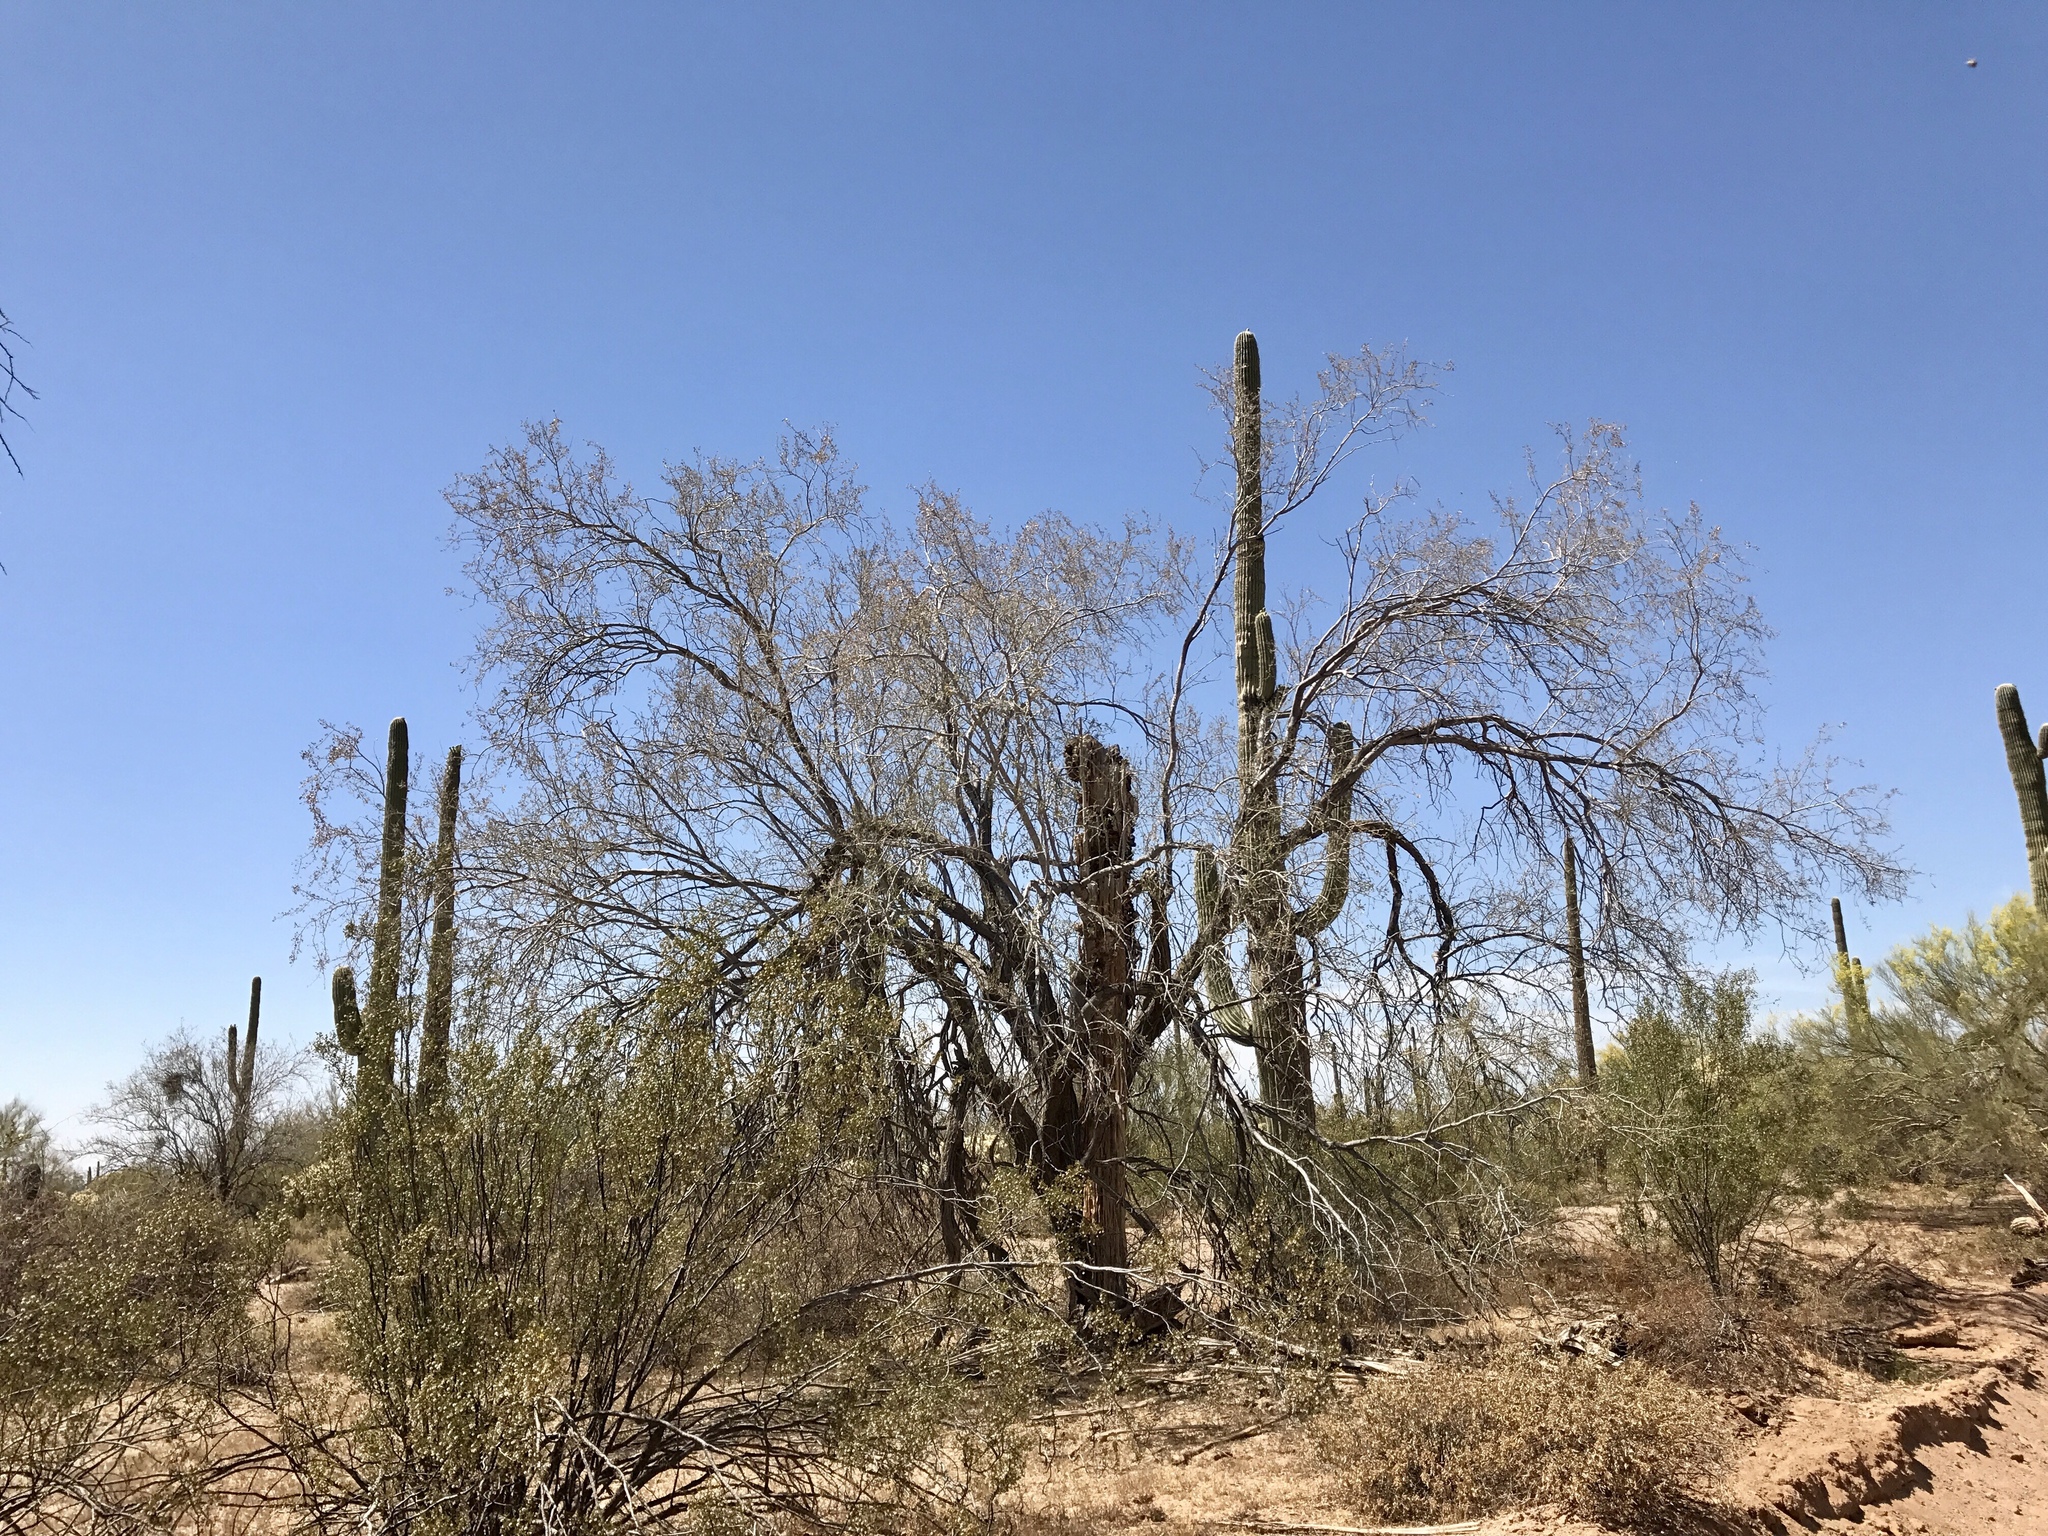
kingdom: Plantae
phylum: Tracheophyta
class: Magnoliopsida
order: Fabales
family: Fabaceae
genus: Olneya
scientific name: Olneya tesota
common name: Desert ironwood
